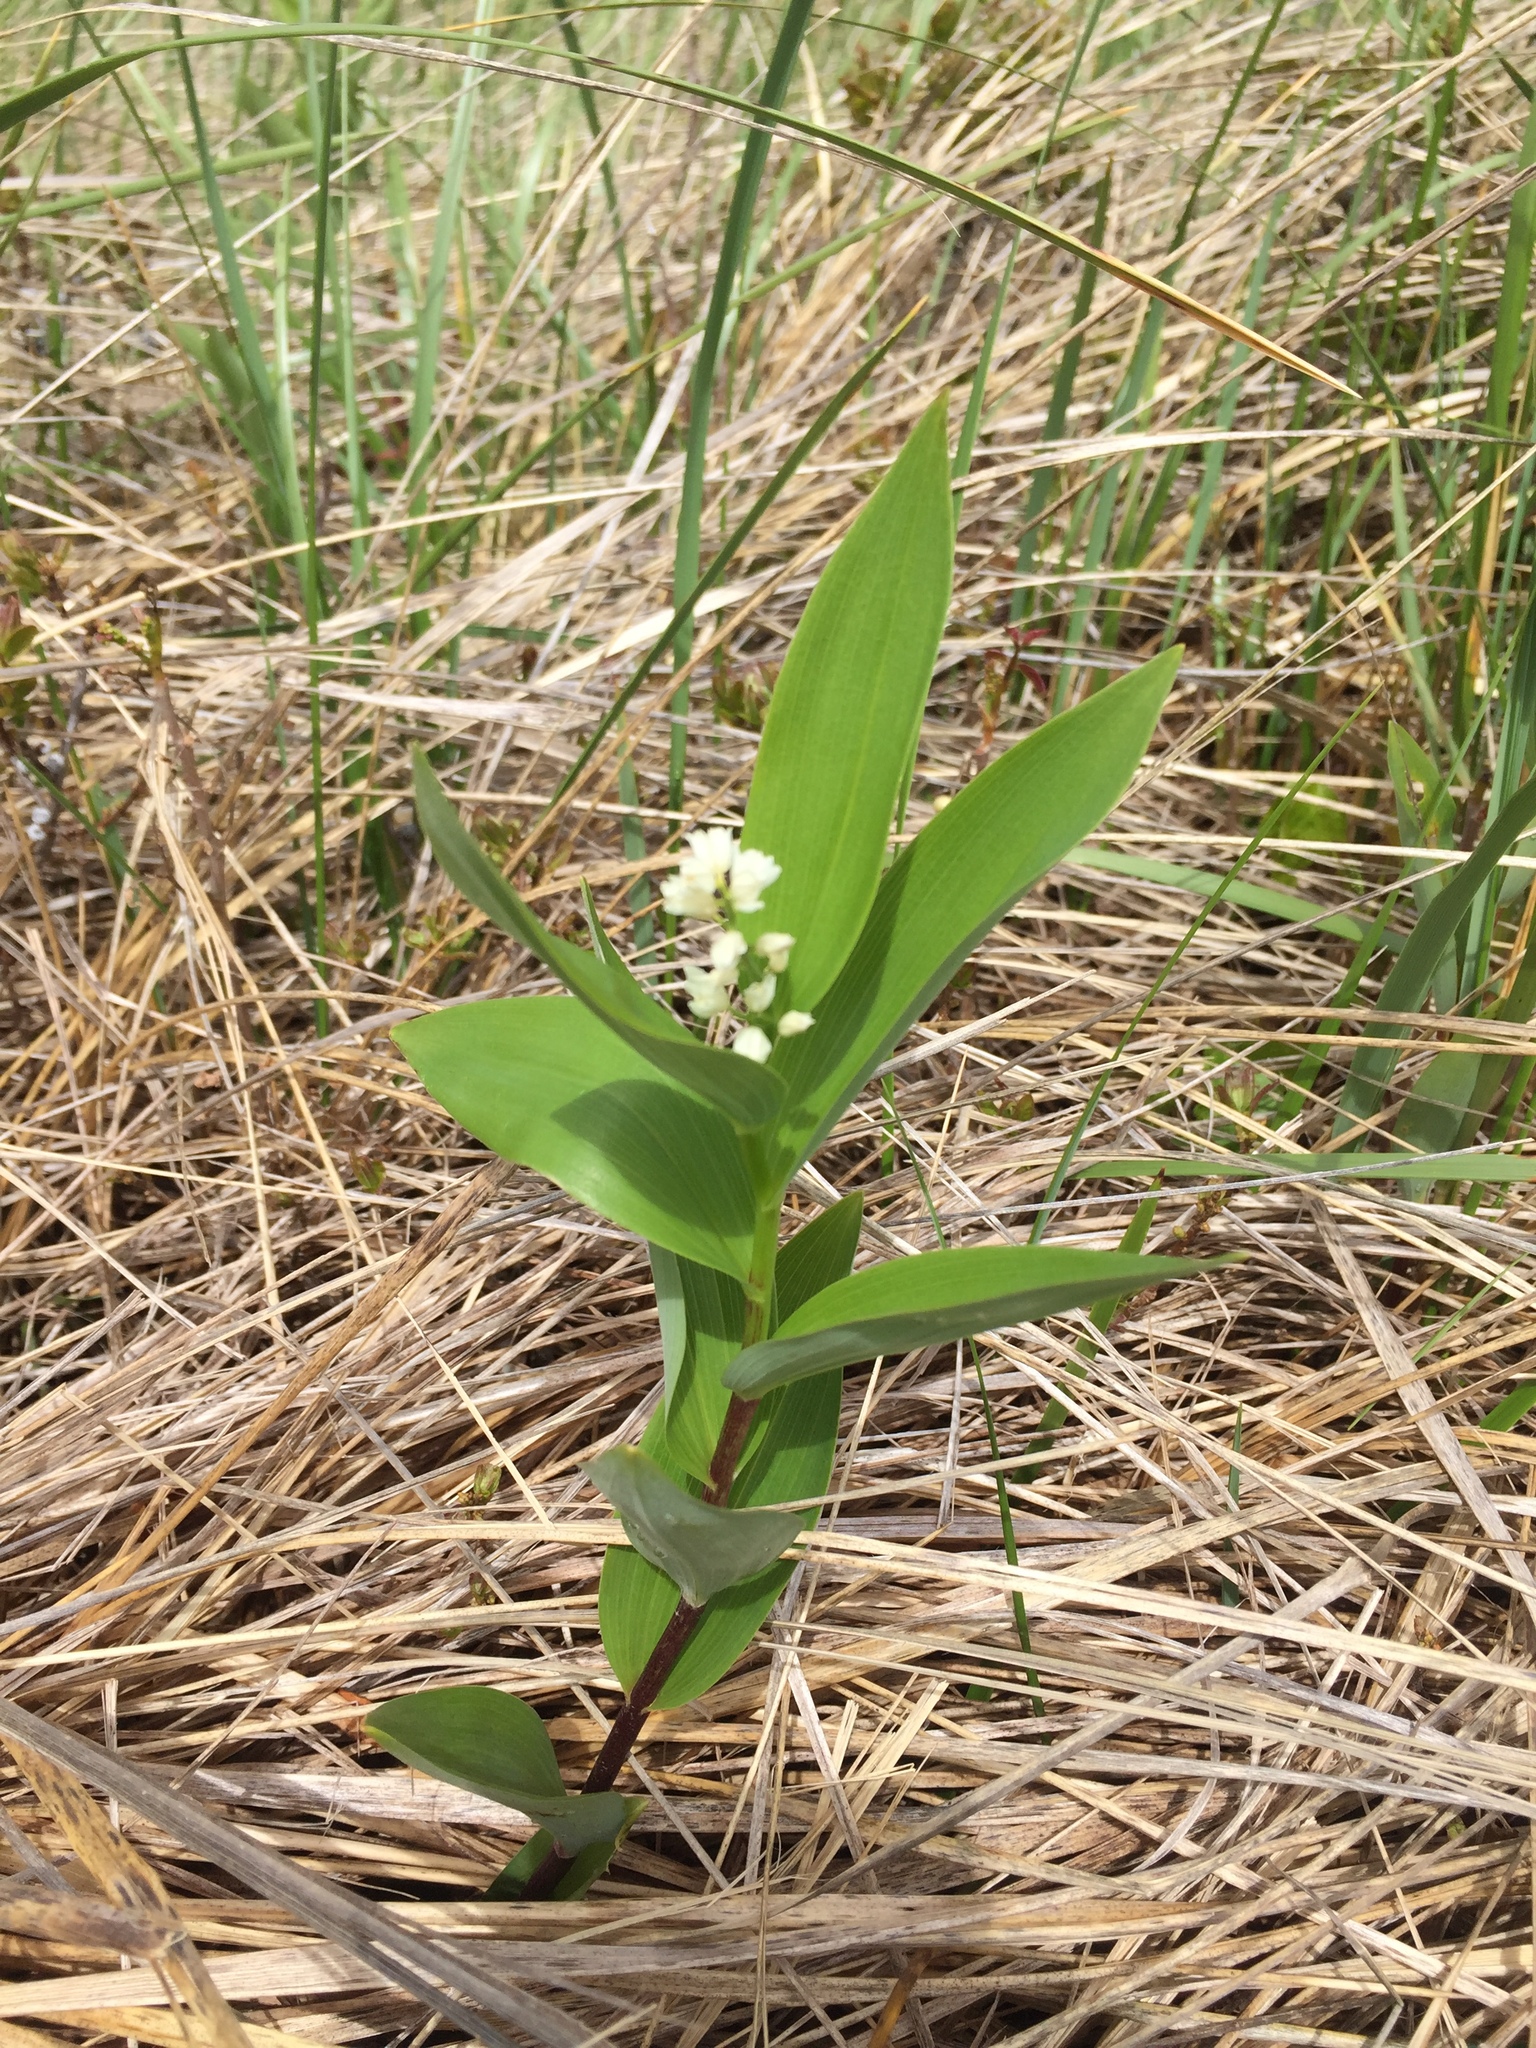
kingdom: Plantae
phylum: Tracheophyta
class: Liliopsida
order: Asparagales
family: Asparagaceae
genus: Maianthemum
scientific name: Maianthemum stellatum
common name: Little false solomon's seal
